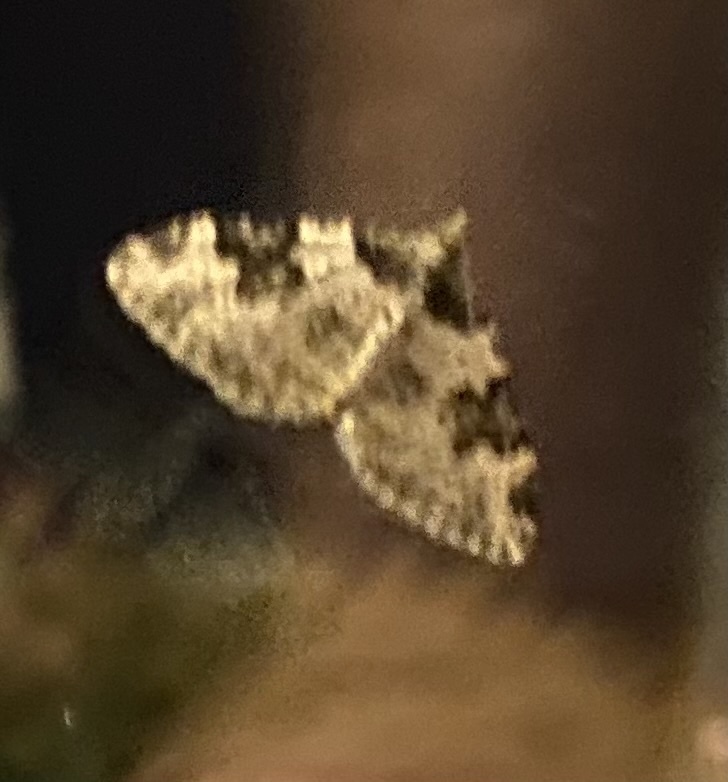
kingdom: Animalia
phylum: Arthropoda
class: Insecta
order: Lepidoptera
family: Geometridae
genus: Xanthorhoe
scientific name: Xanthorhoe fluctuata
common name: Garden carpet
